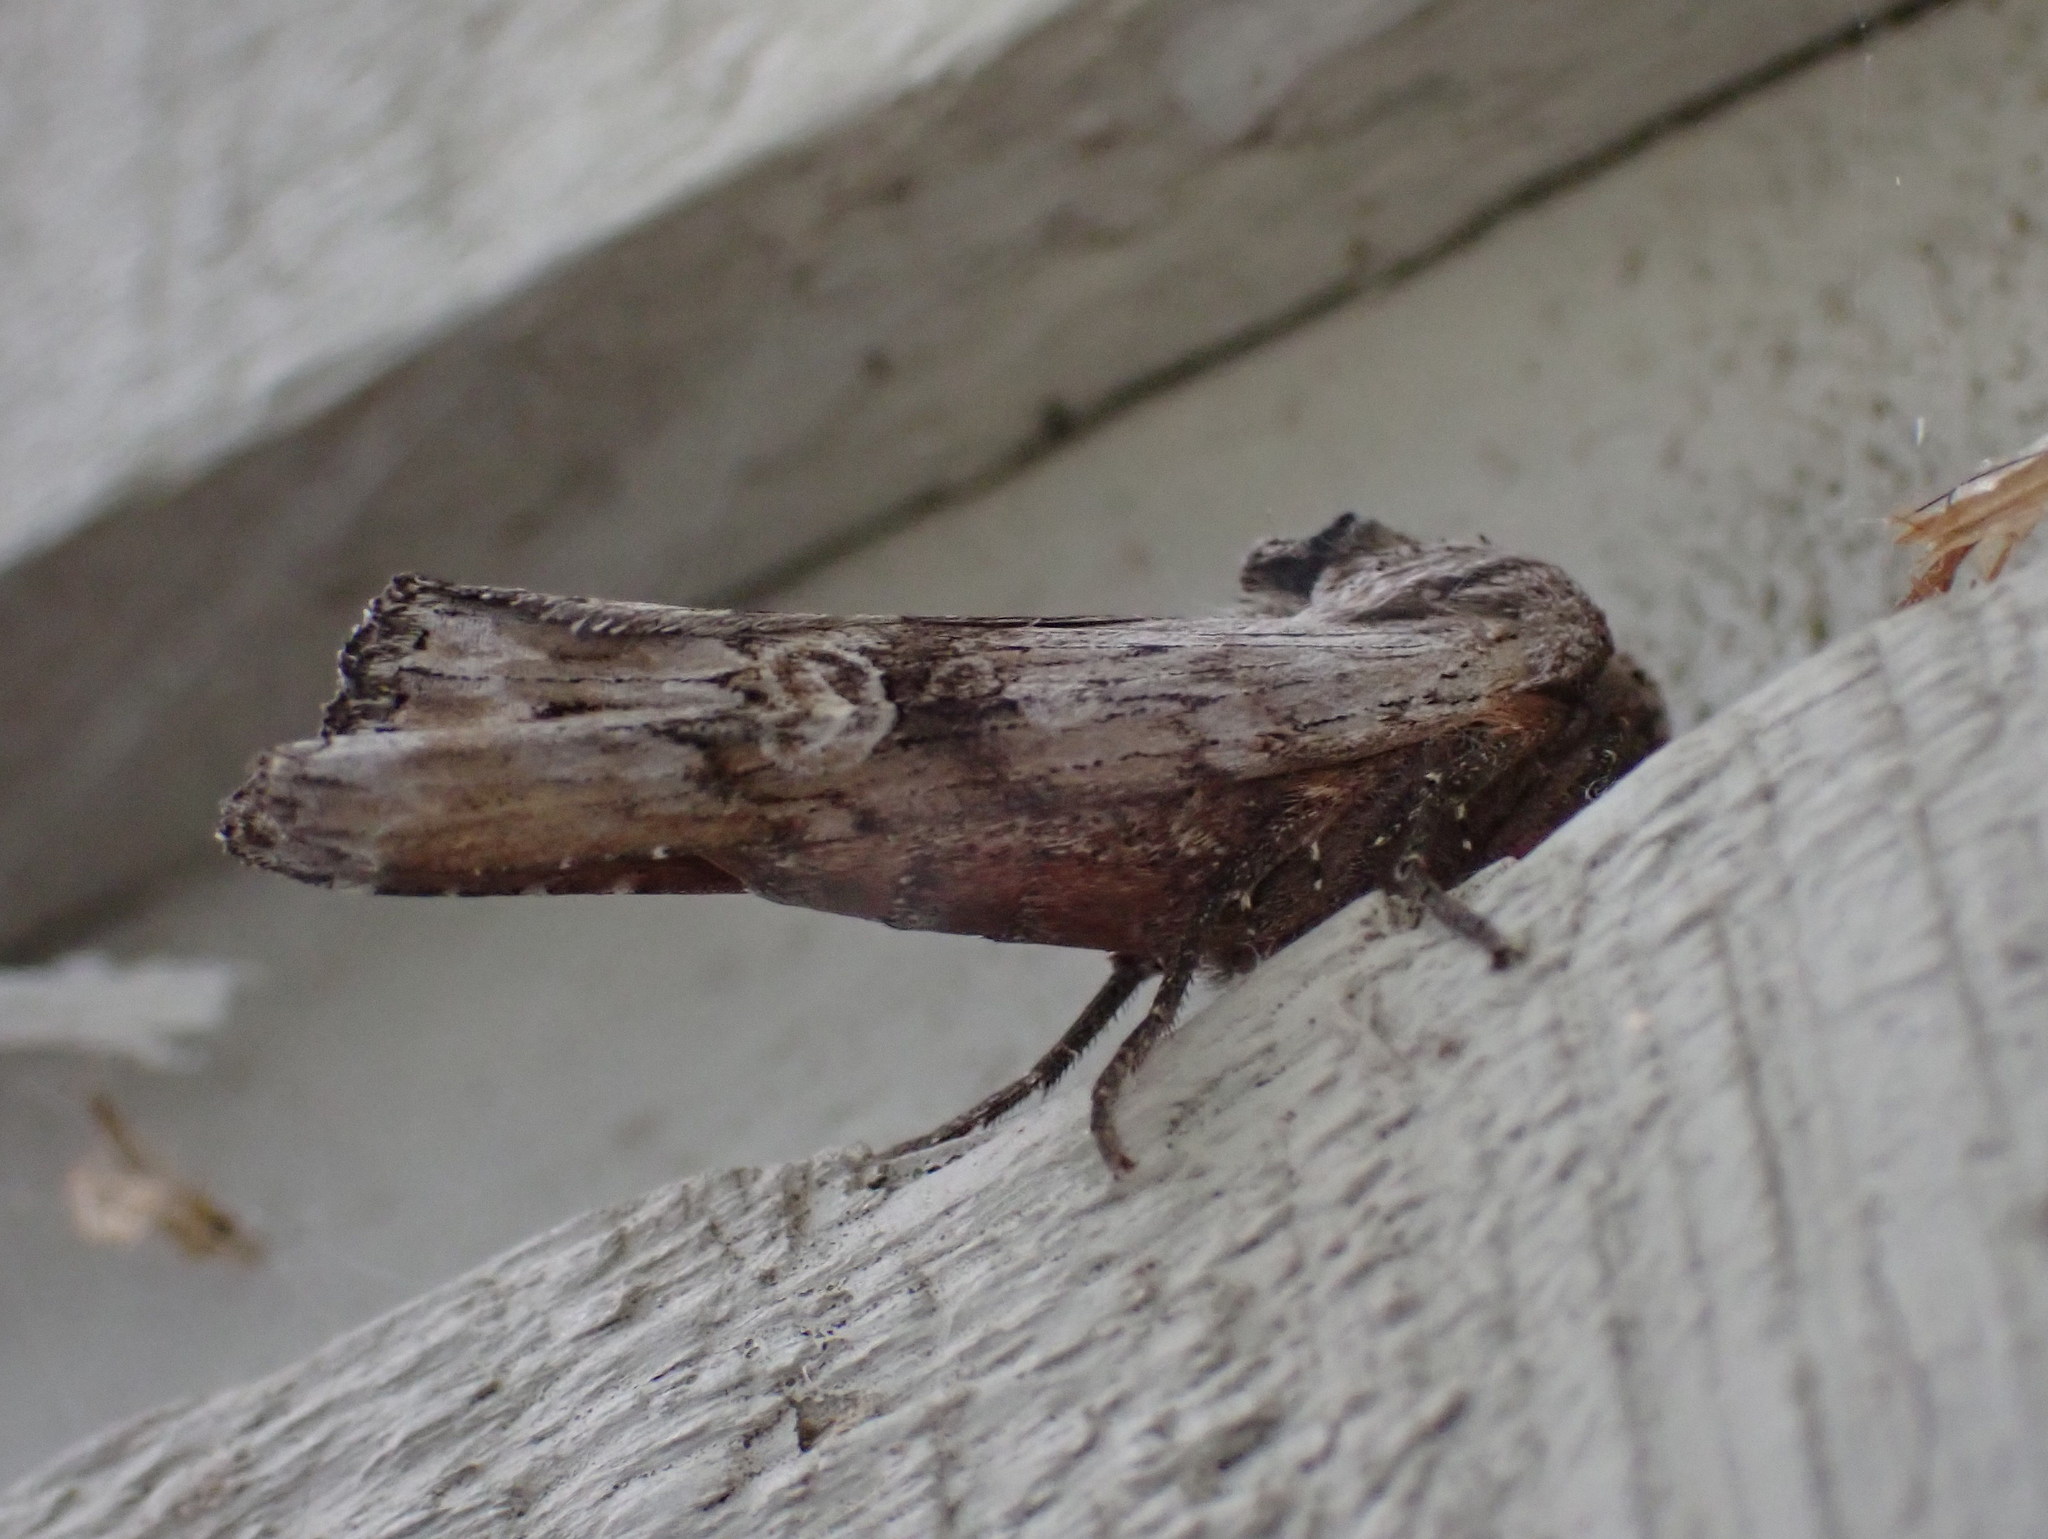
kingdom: Animalia
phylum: Arthropoda
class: Insecta
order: Lepidoptera
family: Noctuidae
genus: Xylena
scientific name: Xylena germana
